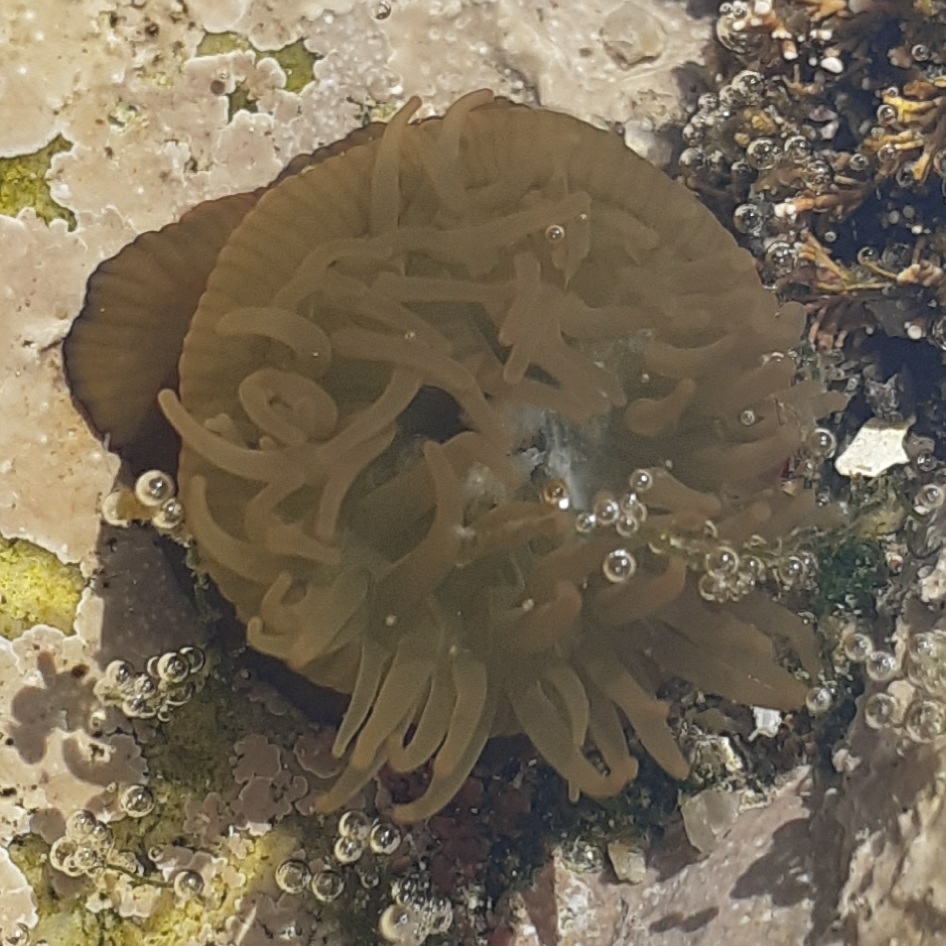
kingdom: Animalia
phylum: Cnidaria
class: Anthozoa
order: Actiniaria
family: Actiniidae
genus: Actinia
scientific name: Actinia equina
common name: Beadlet anemone
